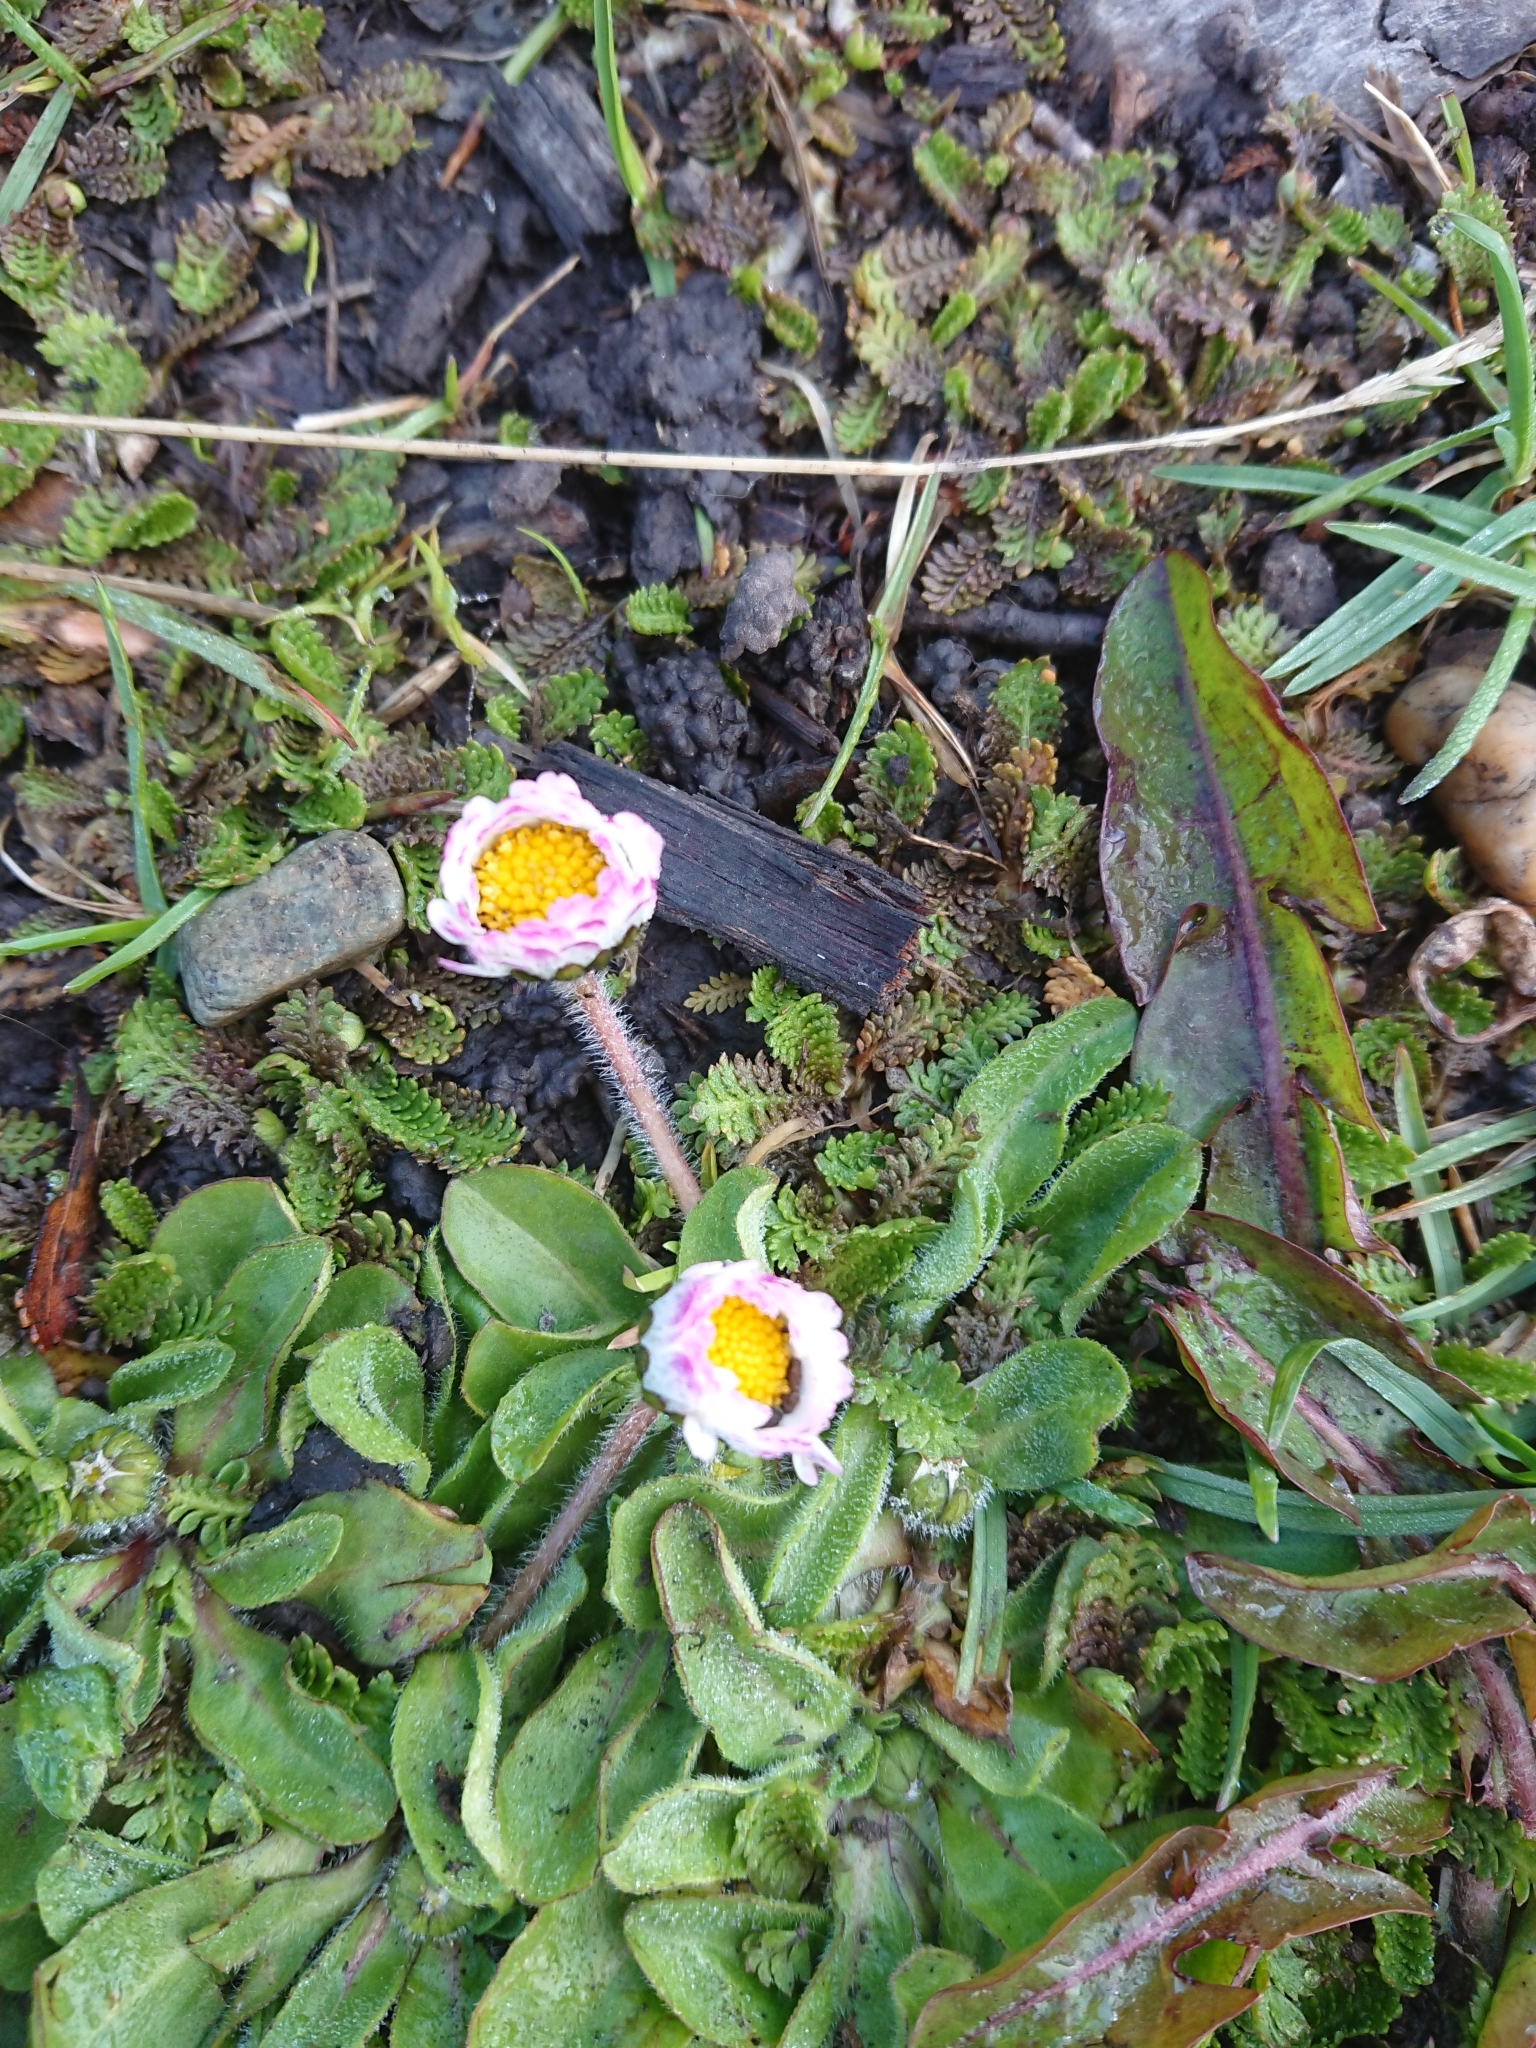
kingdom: Plantae
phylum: Tracheophyta
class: Magnoliopsida
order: Asterales
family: Asteraceae
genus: Bellis
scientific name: Bellis perennis
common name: Lawndaisy
